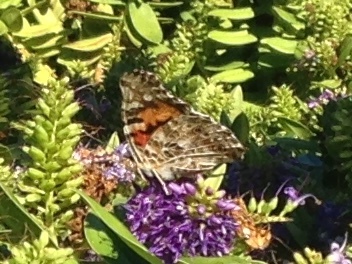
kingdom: Animalia
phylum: Arthropoda
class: Insecta
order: Lepidoptera
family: Nymphalidae
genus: Vanessa
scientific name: Vanessa cardui
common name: Painted lady
